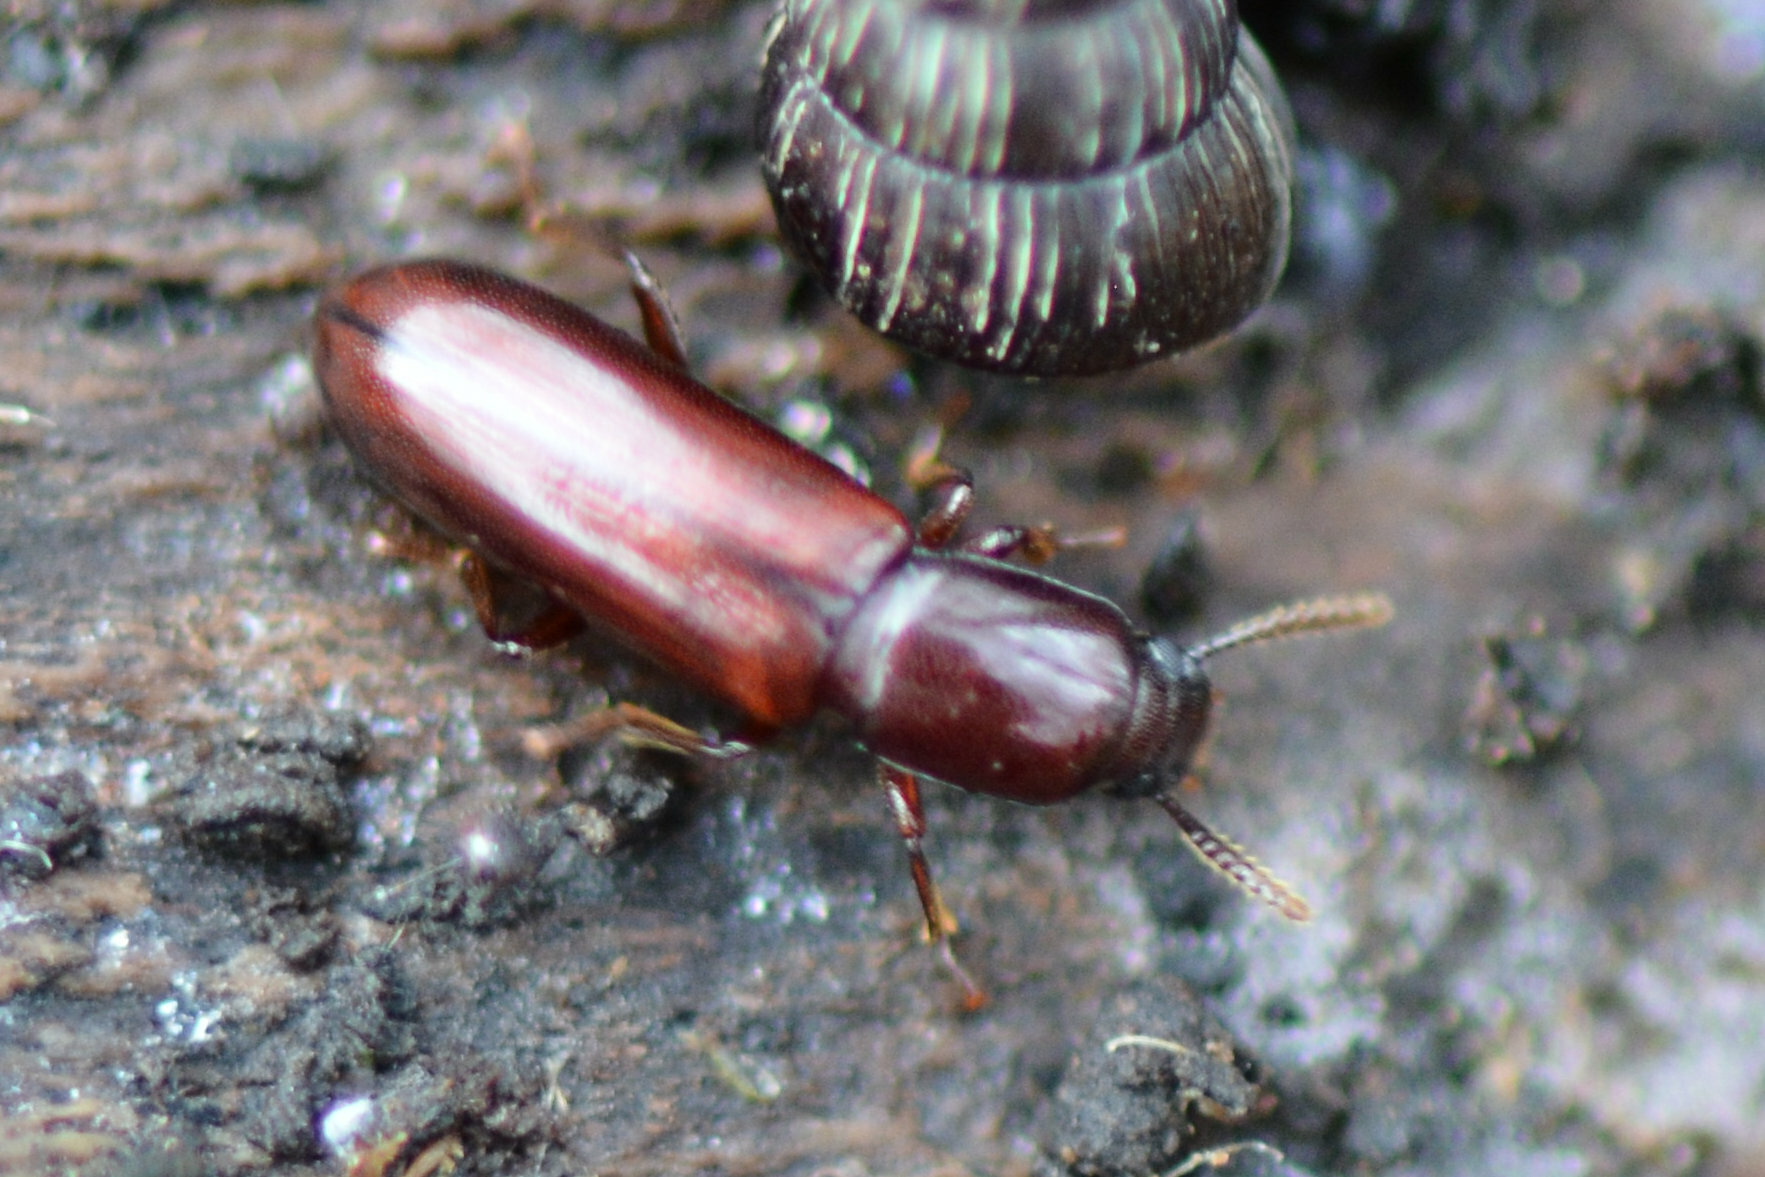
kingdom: Animalia
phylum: Arthropoda
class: Insecta
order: Coleoptera
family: Tenebrionidae
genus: Corticeus
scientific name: Corticeus unicolor
